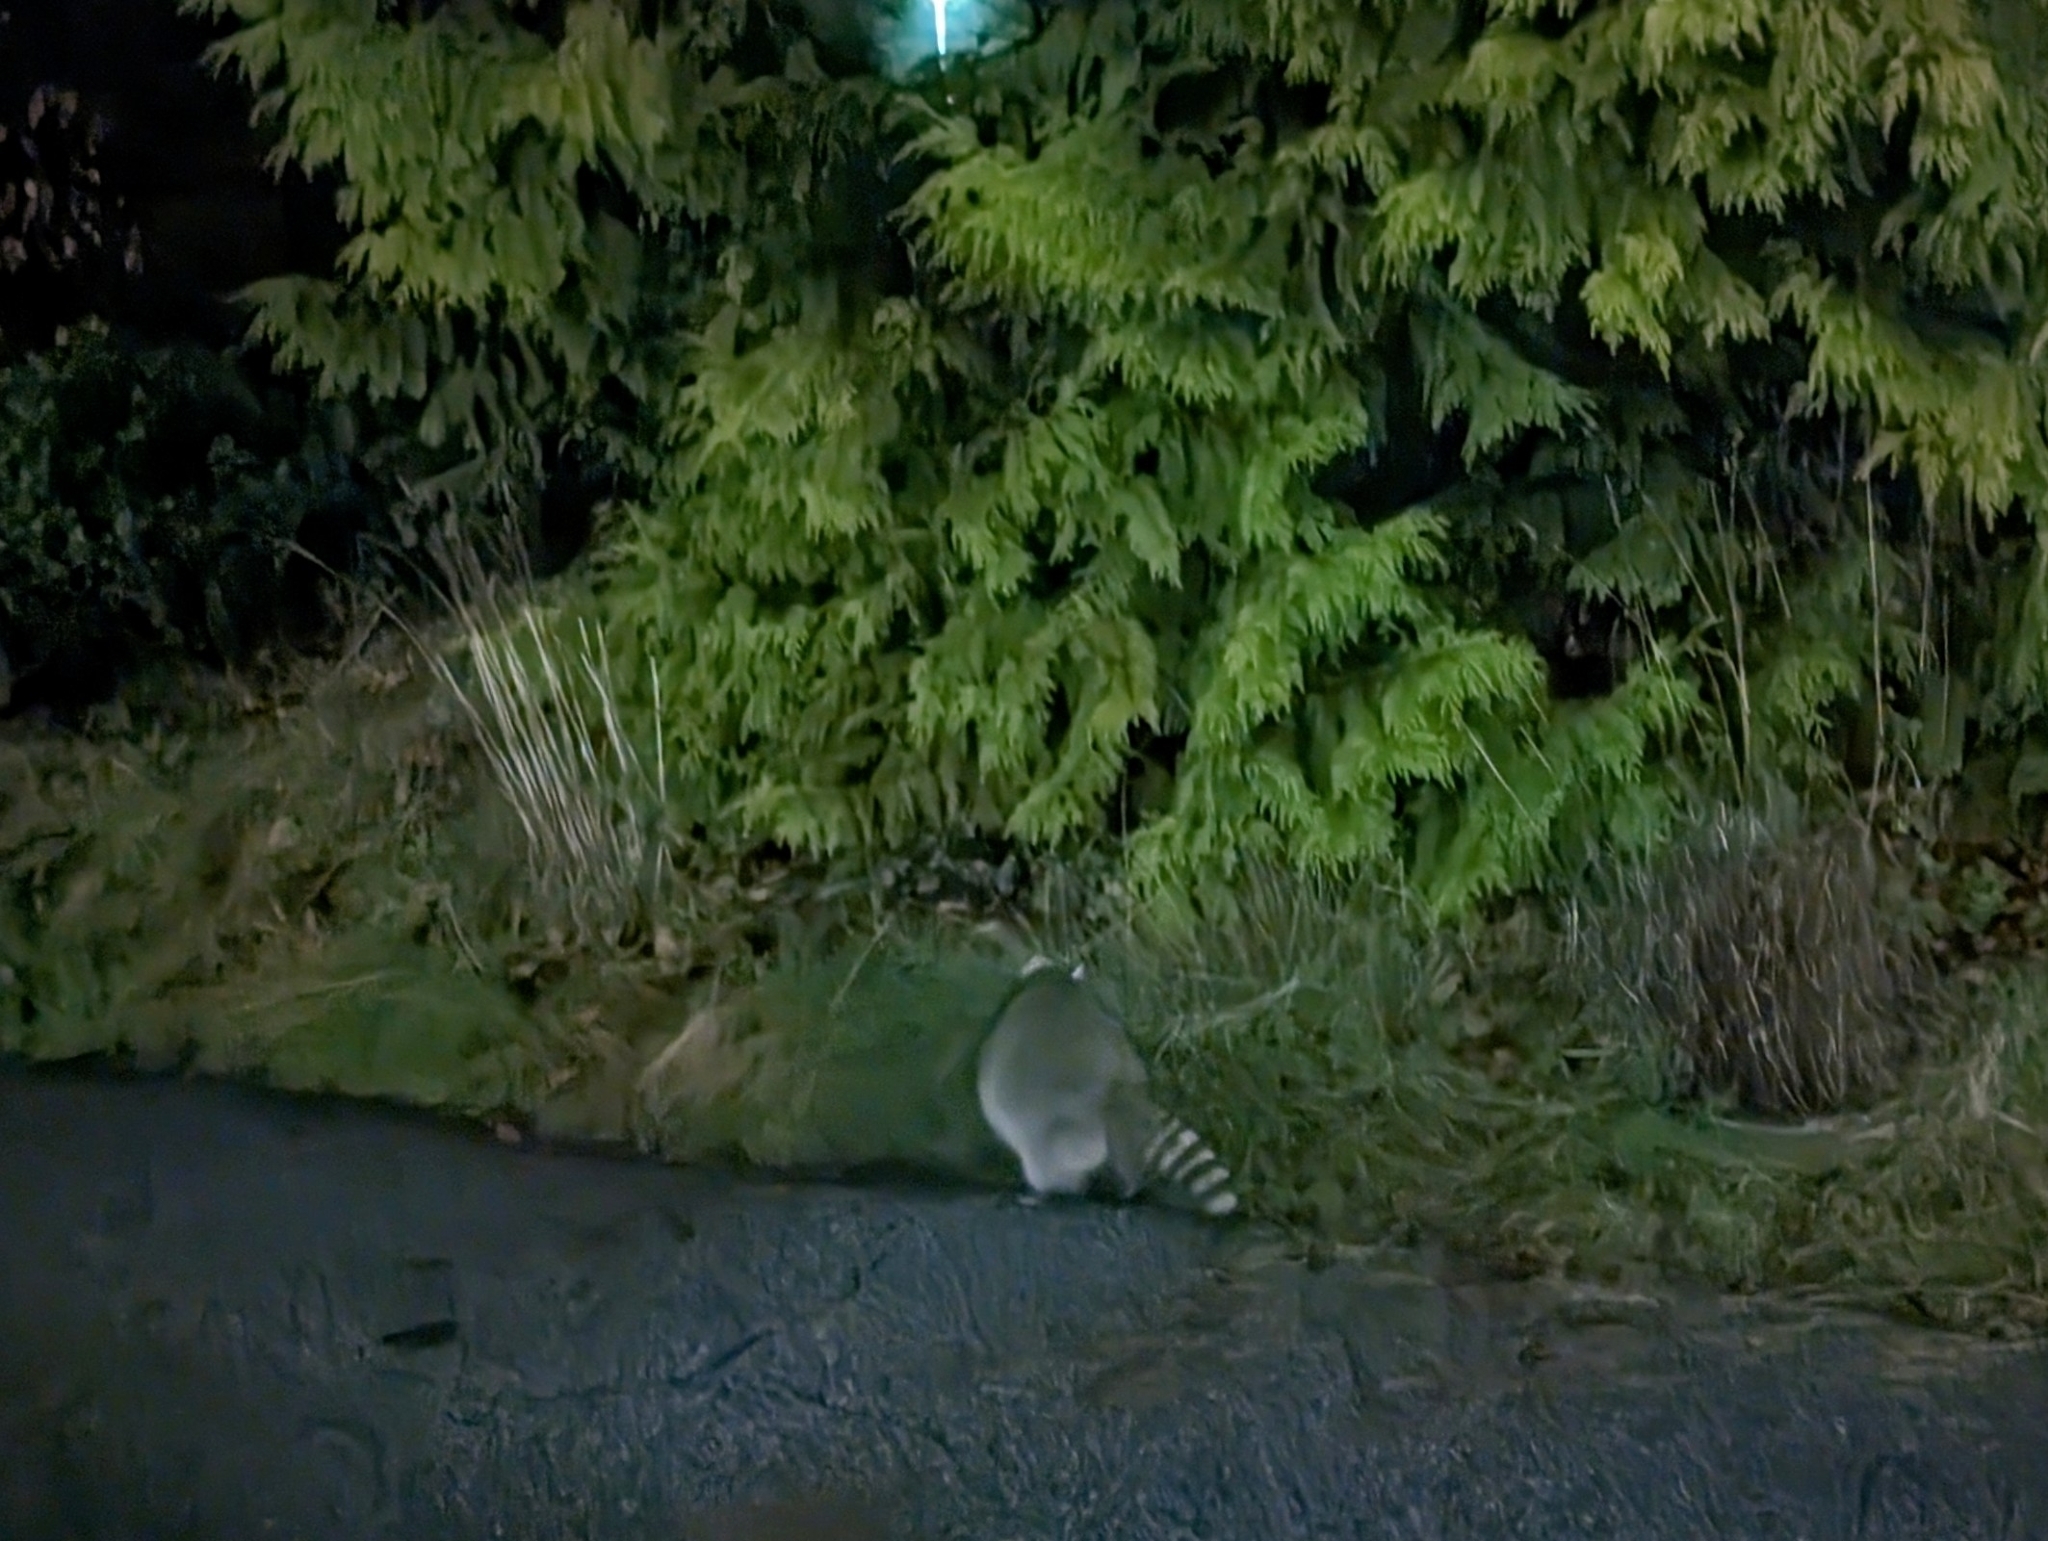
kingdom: Animalia
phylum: Chordata
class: Mammalia
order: Carnivora
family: Procyonidae
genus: Procyon
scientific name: Procyon lotor
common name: Raccoon
